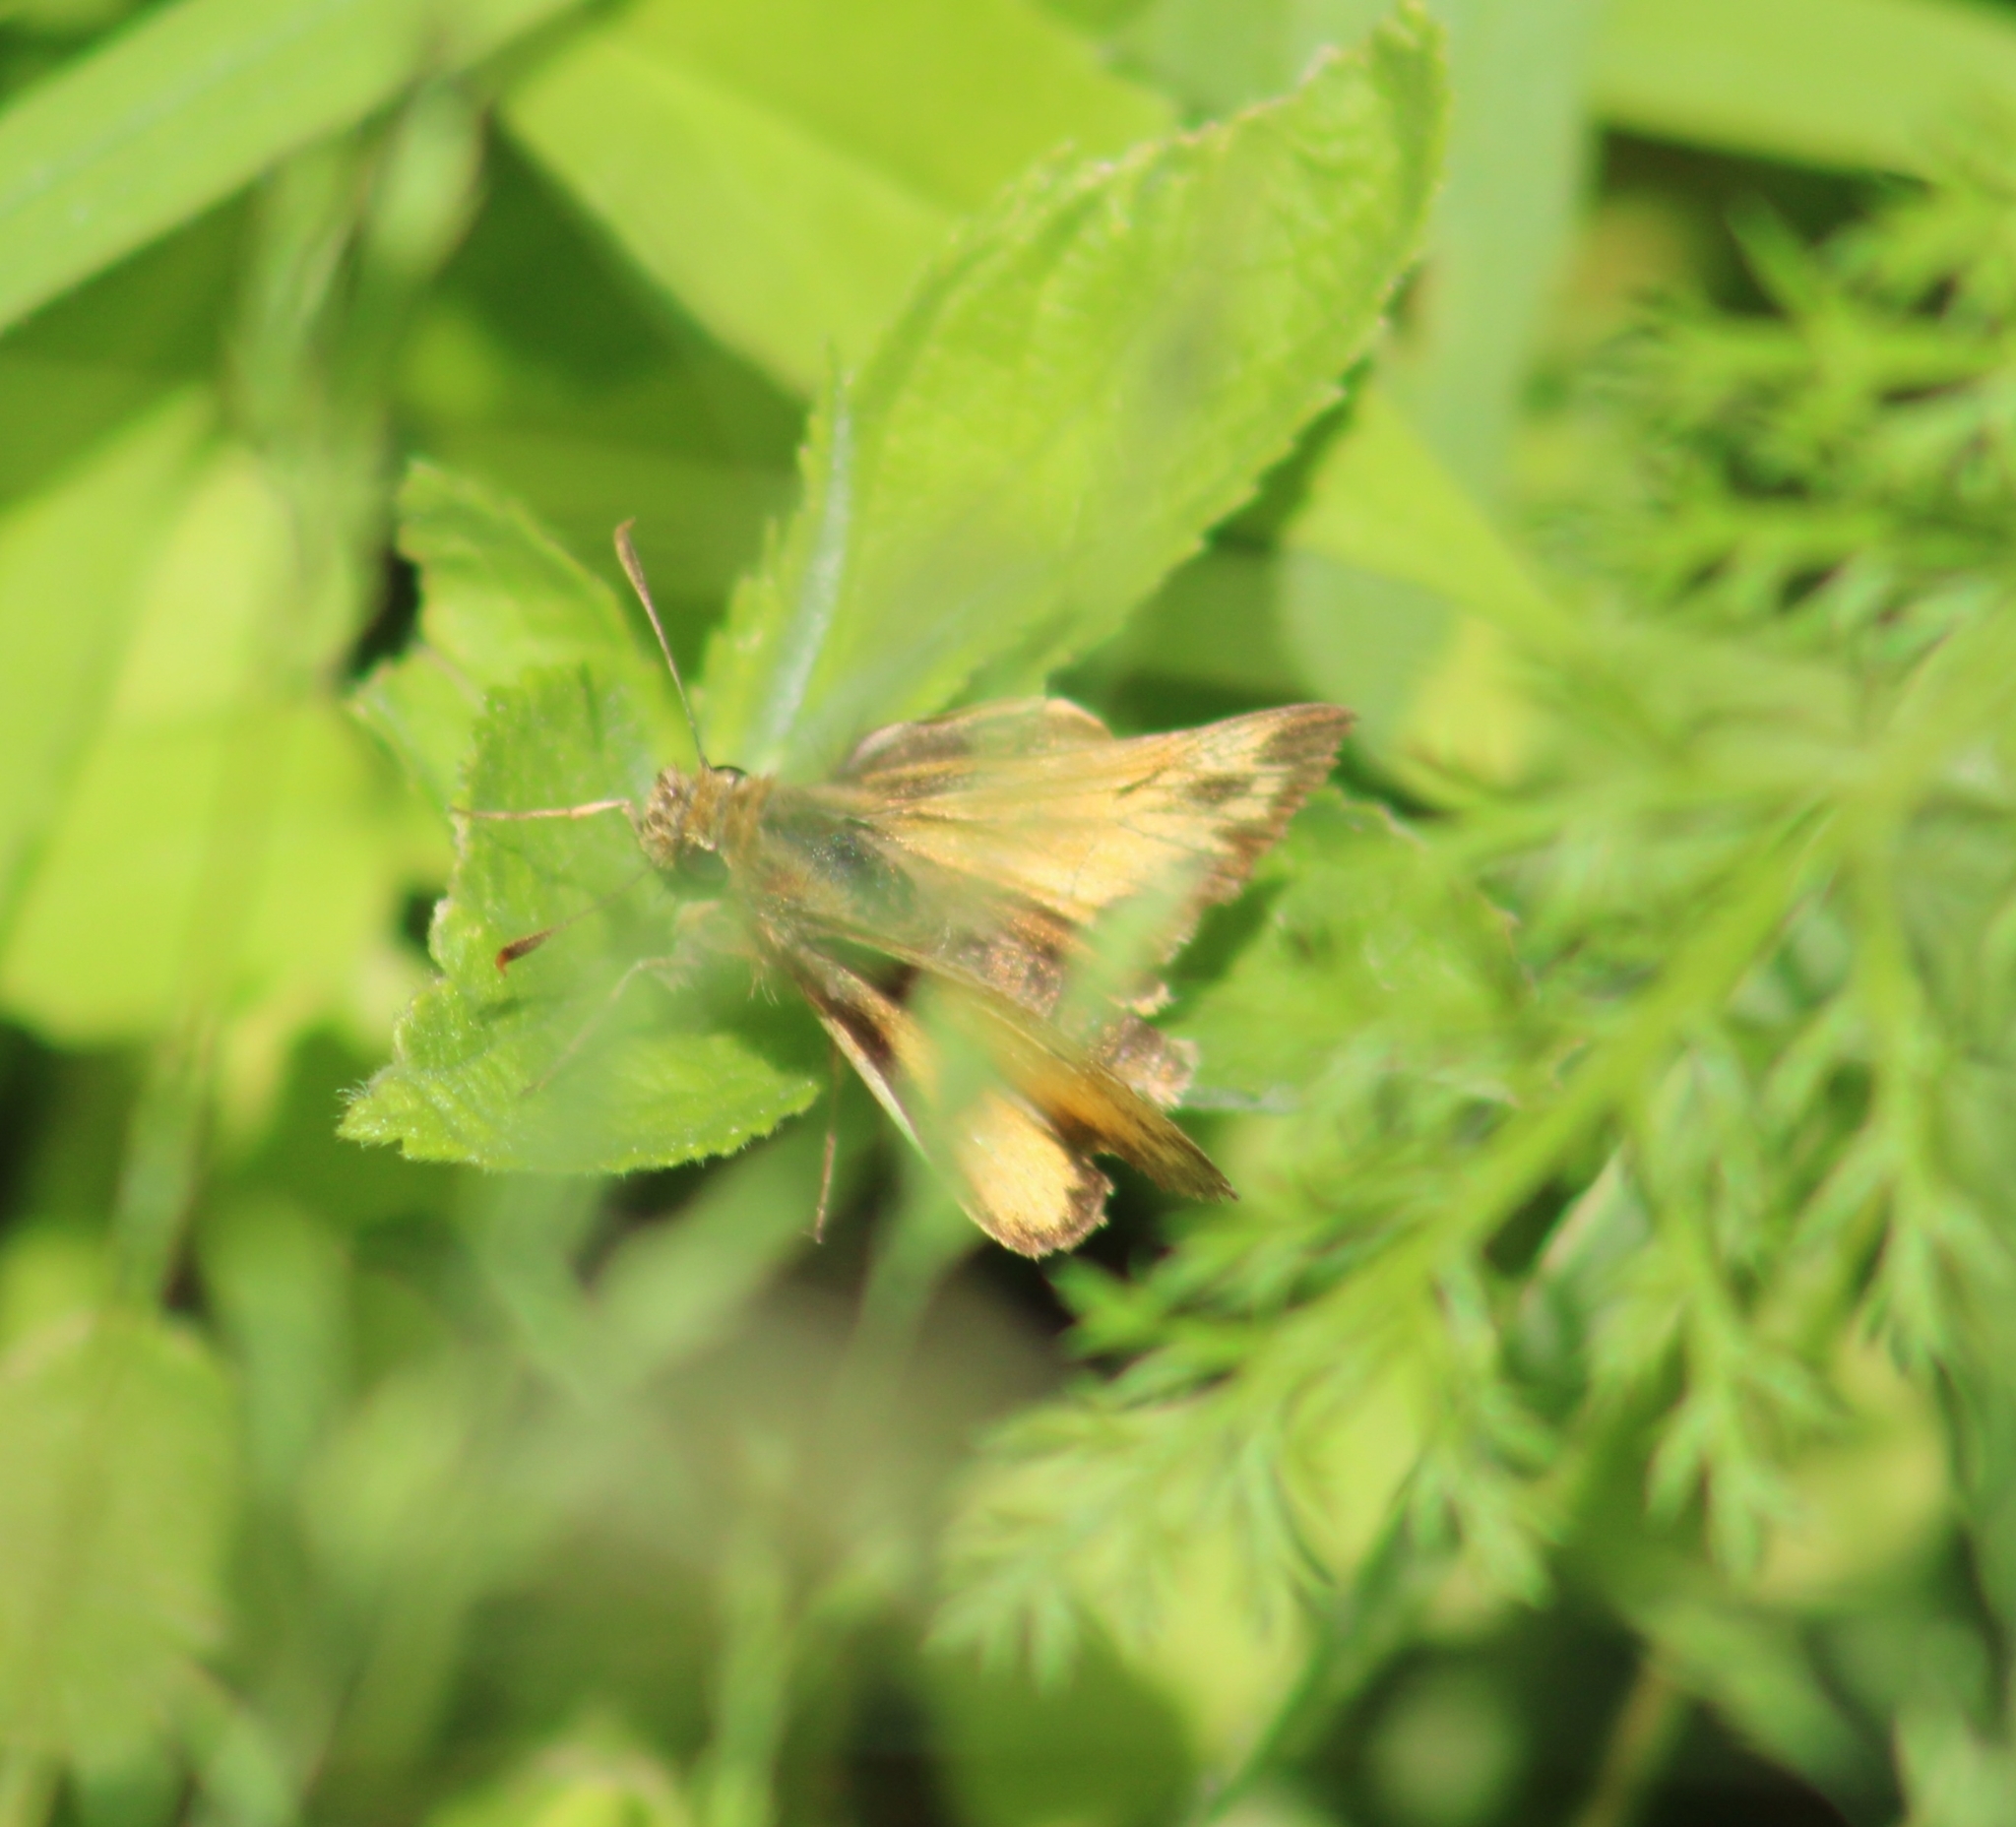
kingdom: Animalia
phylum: Arthropoda
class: Insecta
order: Lepidoptera
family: Hesperiidae
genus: Lon
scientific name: Lon zabulon
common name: Zabulon skipper
